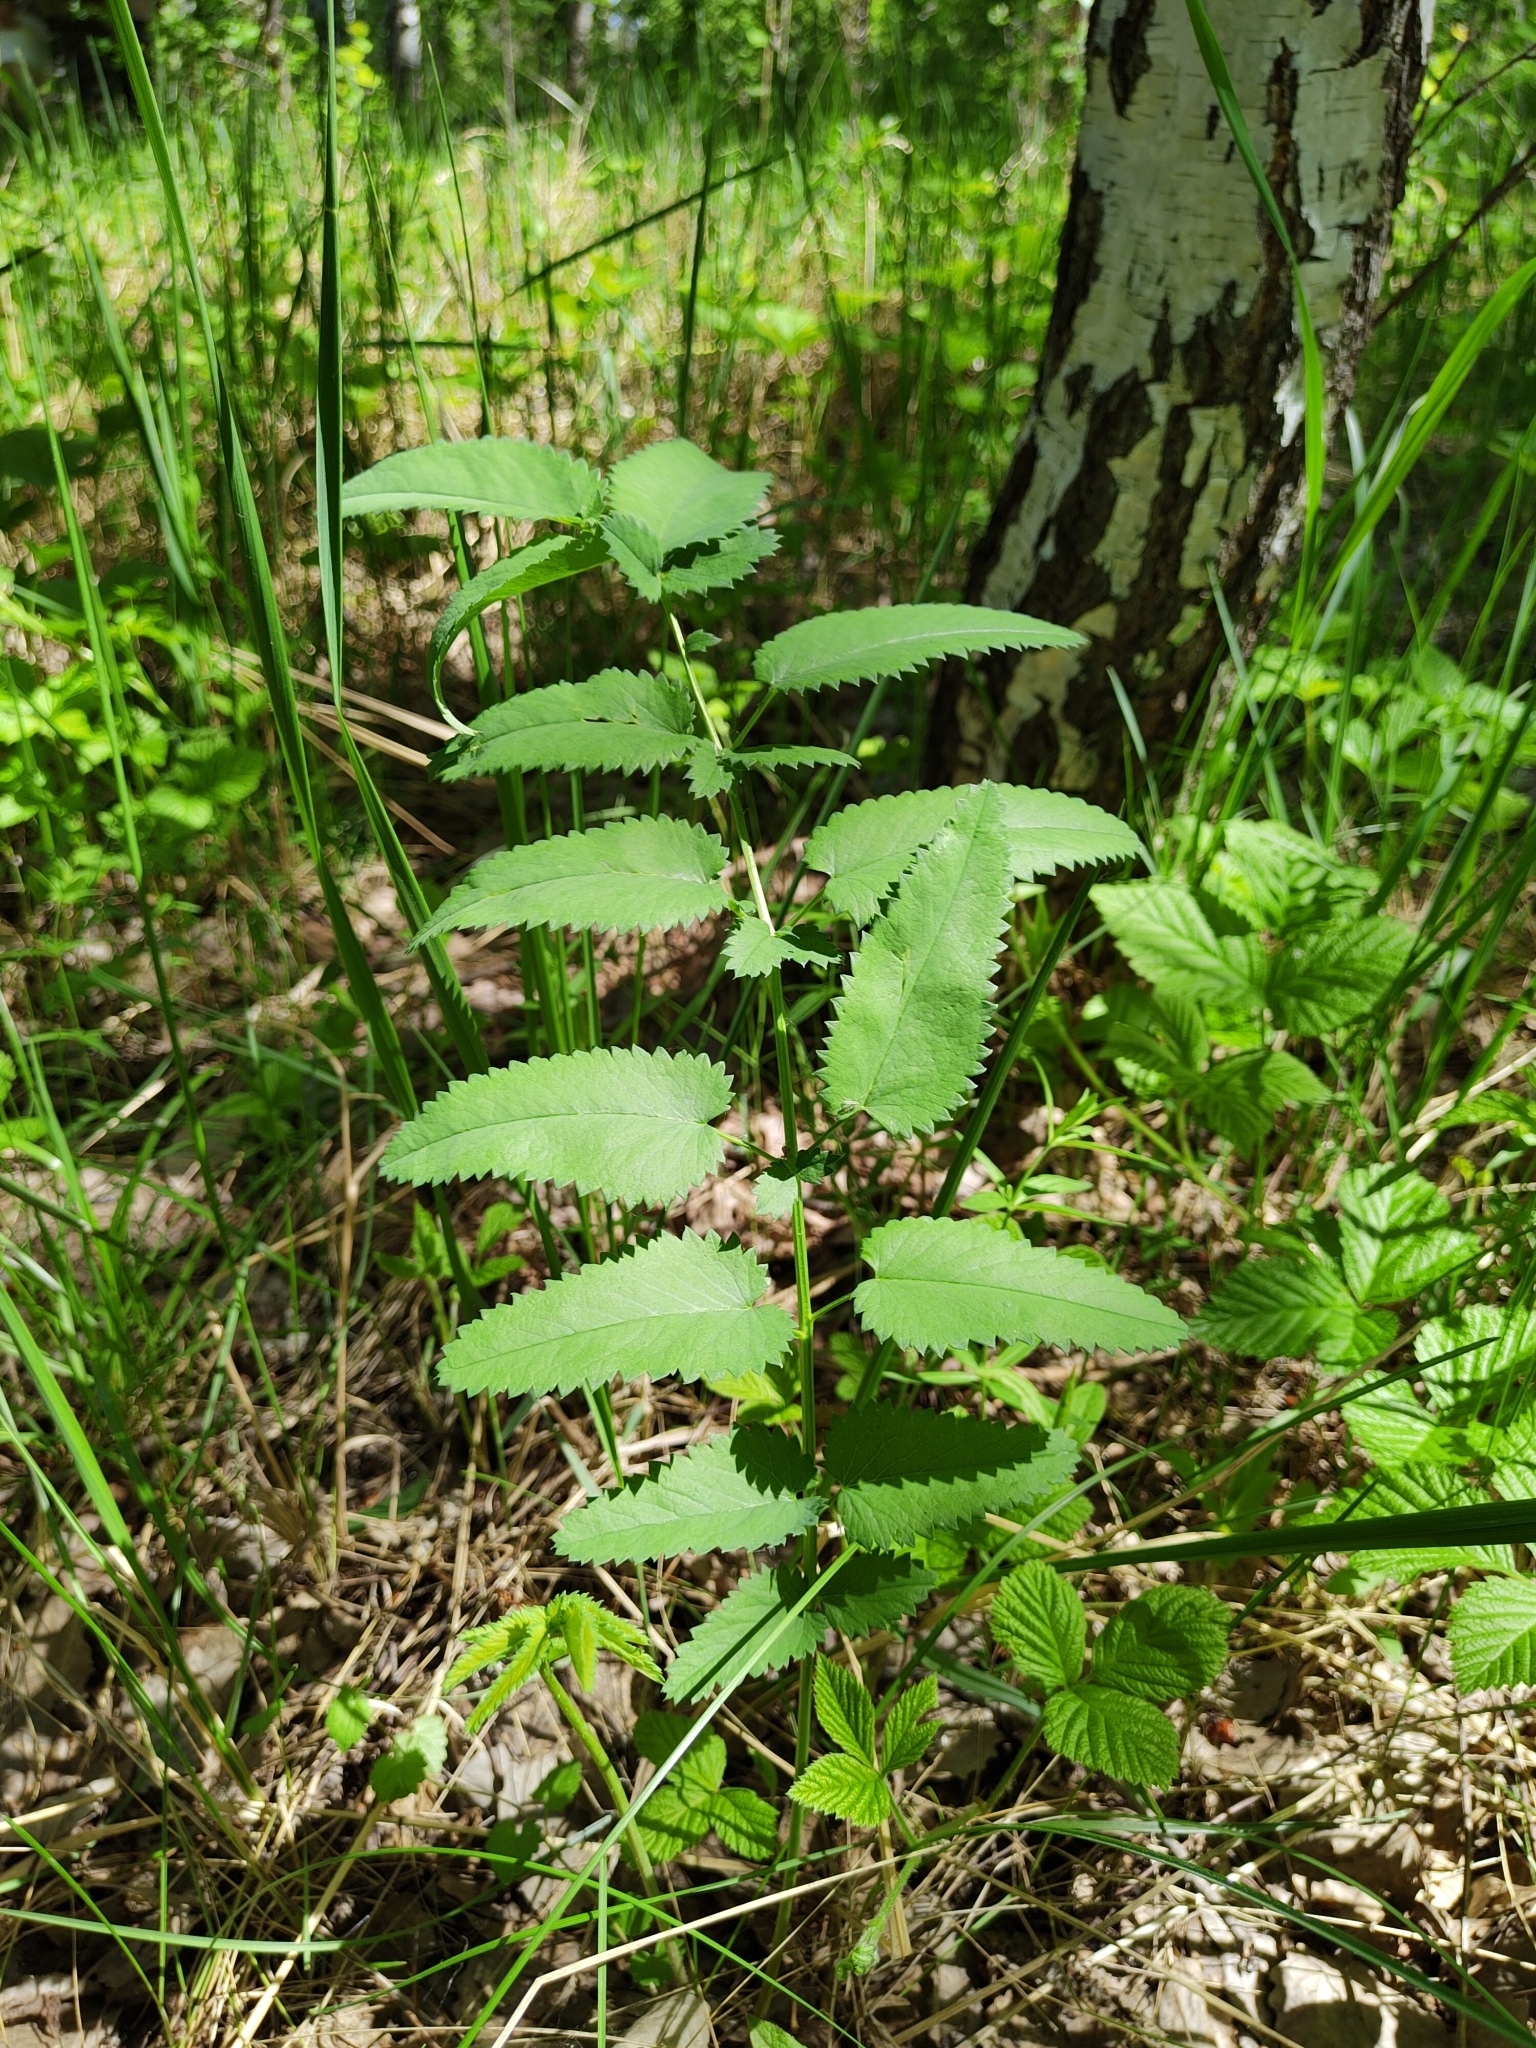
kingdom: Plantae
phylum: Tracheophyta
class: Magnoliopsida
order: Rosales
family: Rosaceae
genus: Sanguisorba
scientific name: Sanguisorba officinalis
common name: Great burnet
